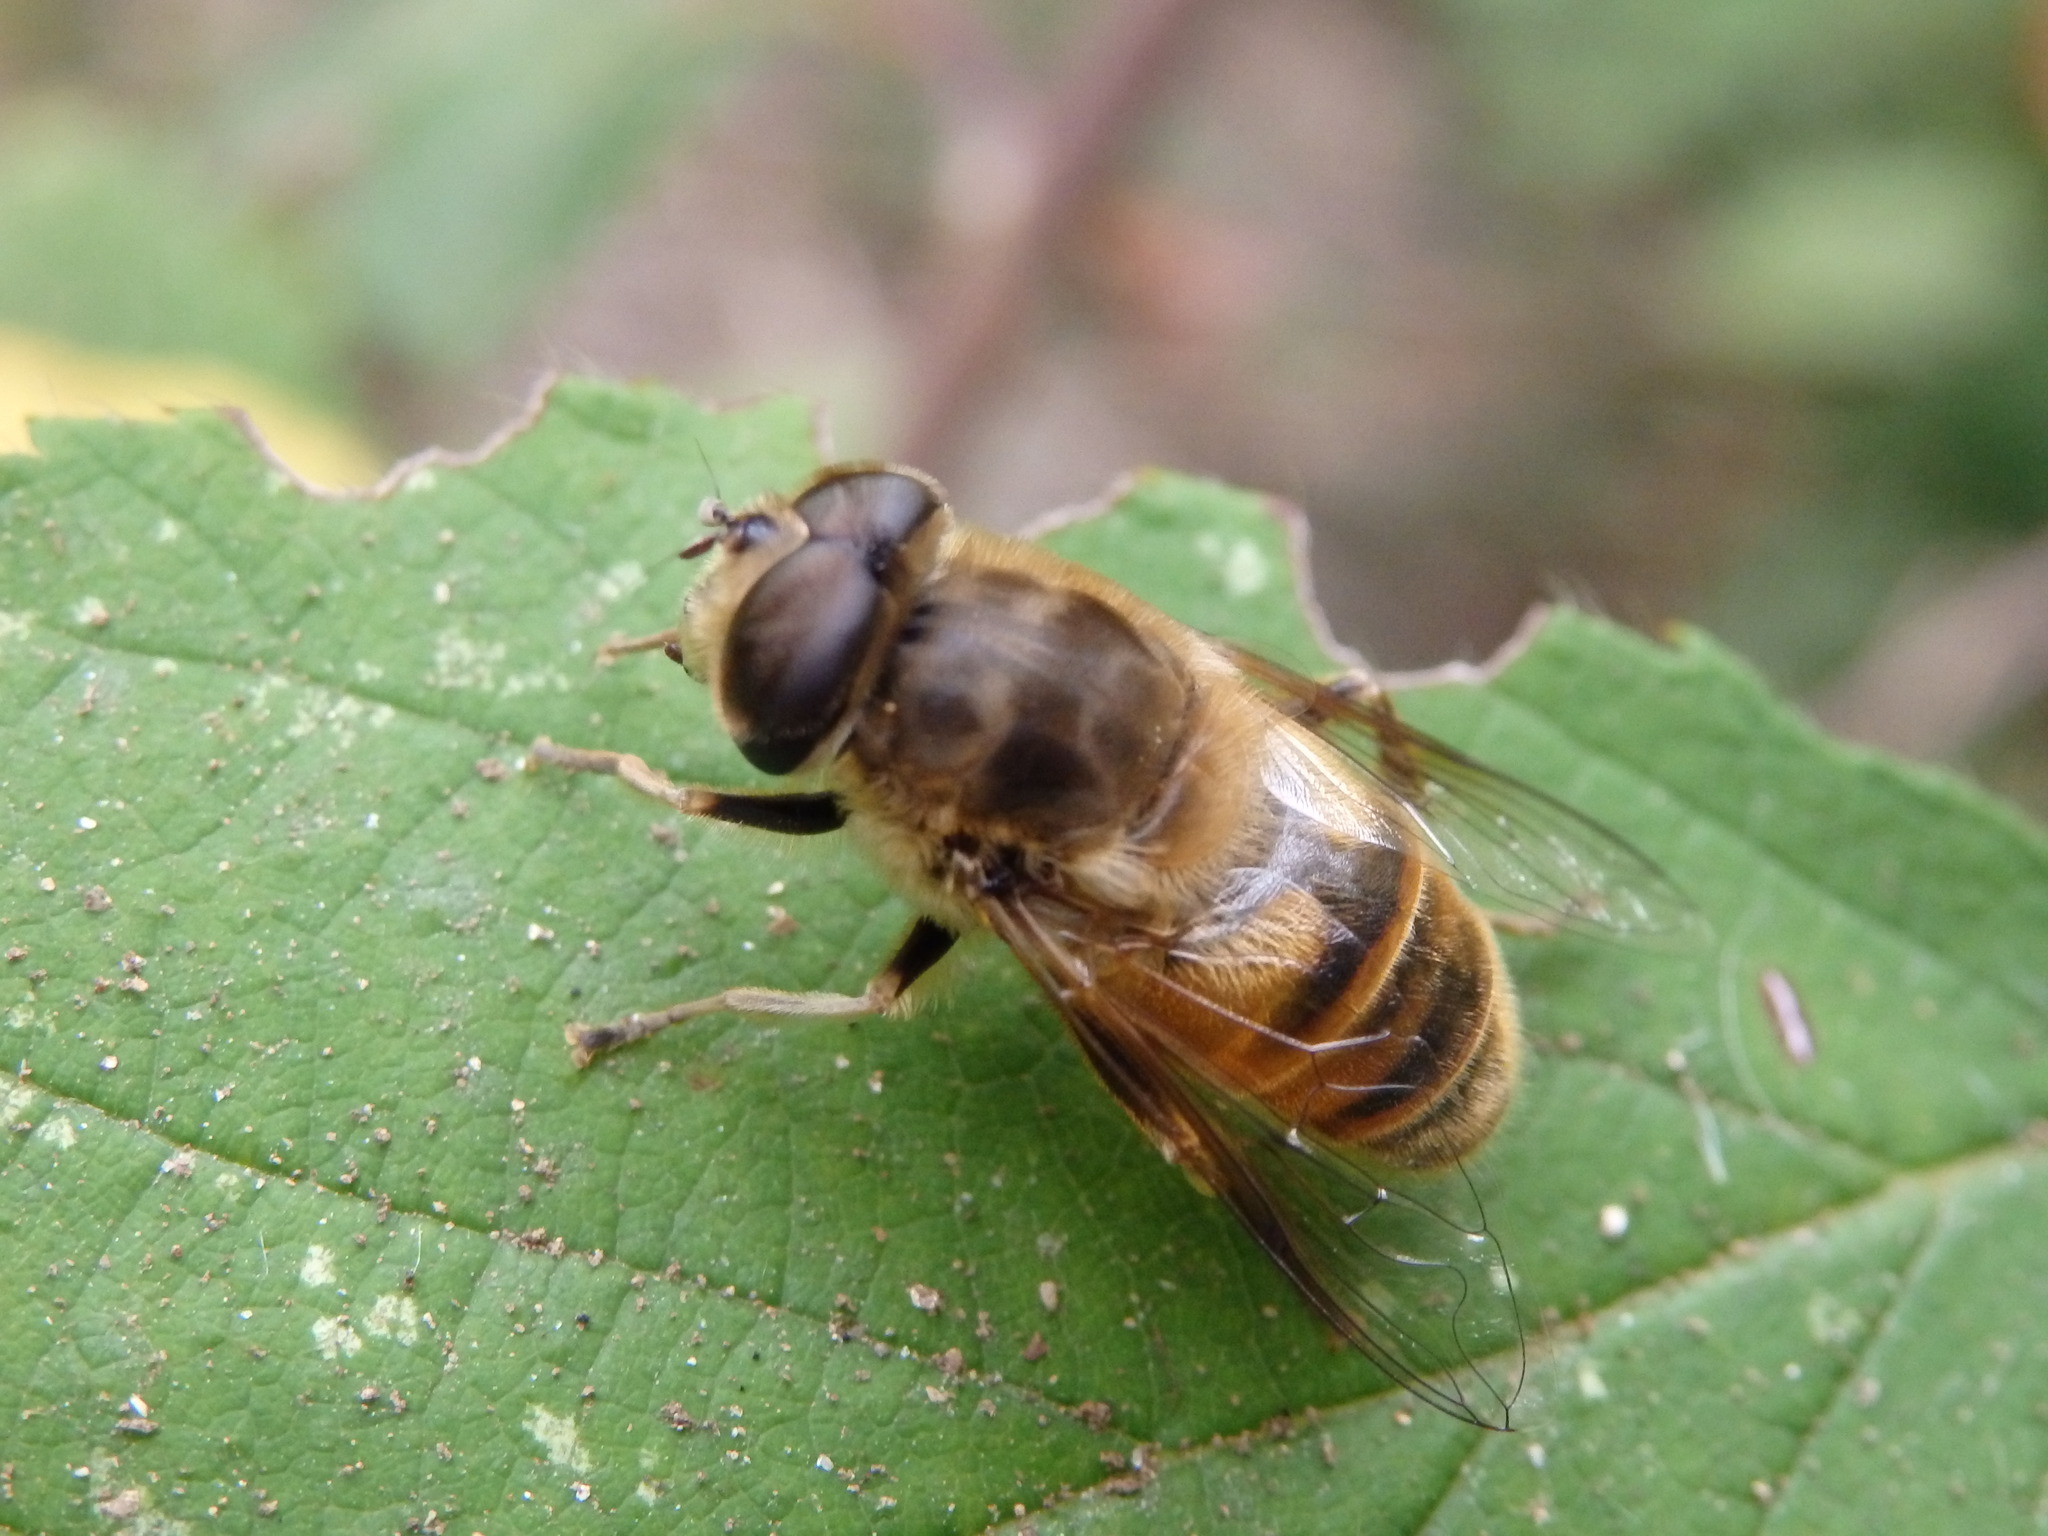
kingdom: Animalia
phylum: Arthropoda
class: Insecta
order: Diptera
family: Syrphidae
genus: Eristalis
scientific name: Eristalis tenax
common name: Drone fly
